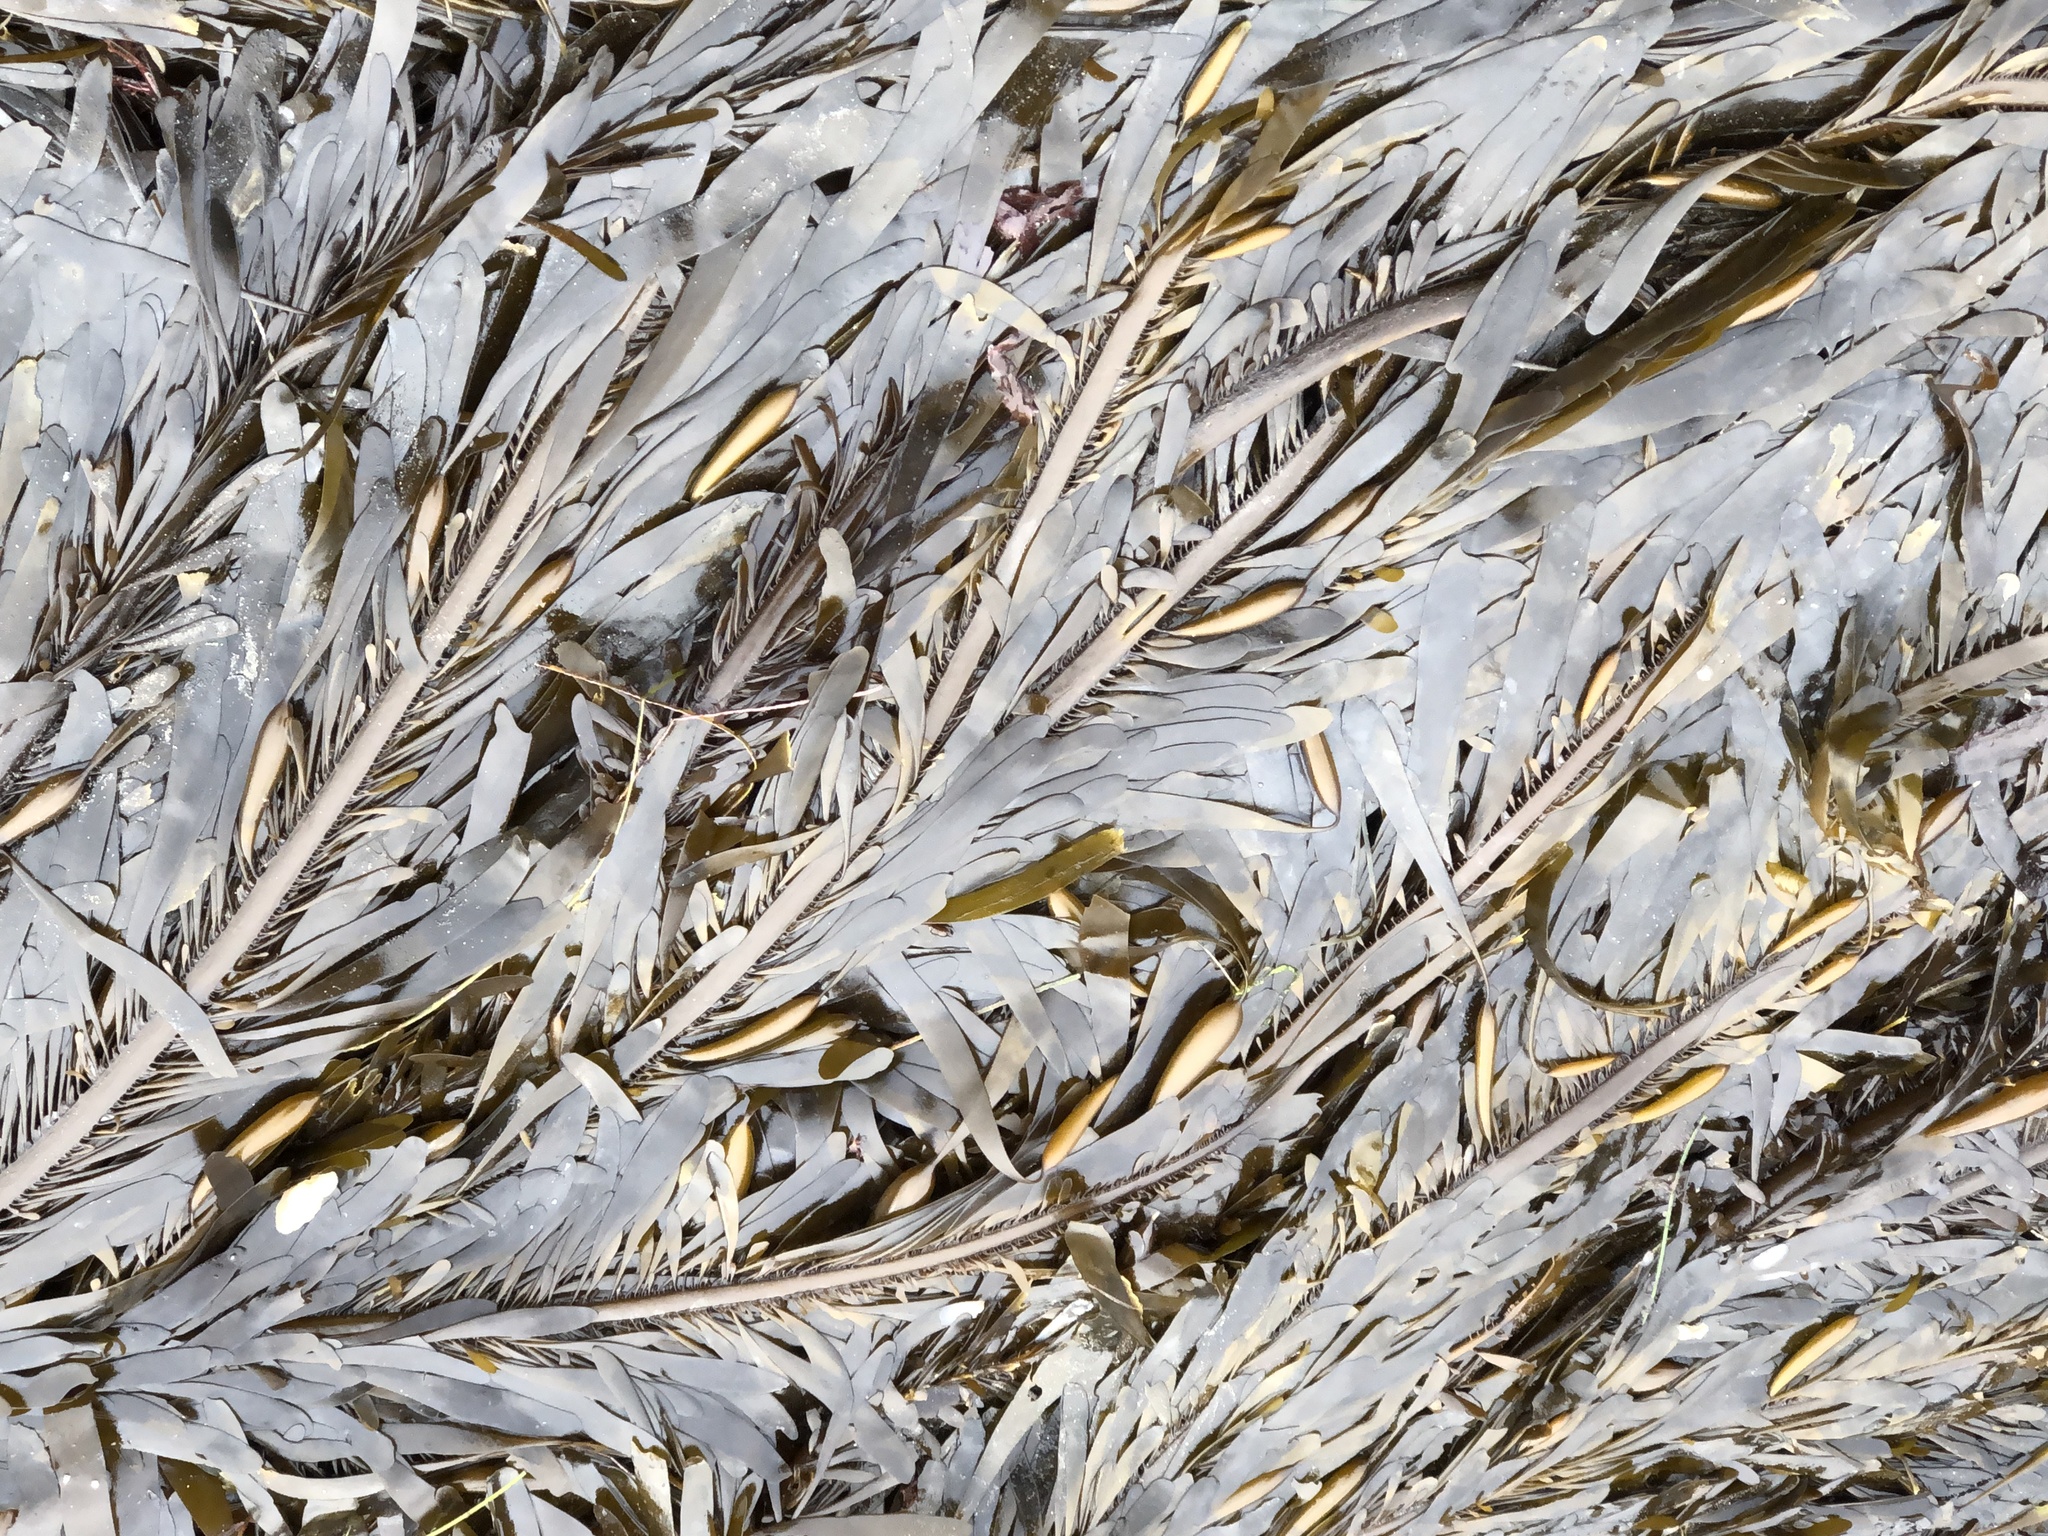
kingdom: Chromista
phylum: Ochrophyta
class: Phaeophyceae
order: Laminariales
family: Lessoniaceae
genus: Egregia
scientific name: Egregia menziesii
